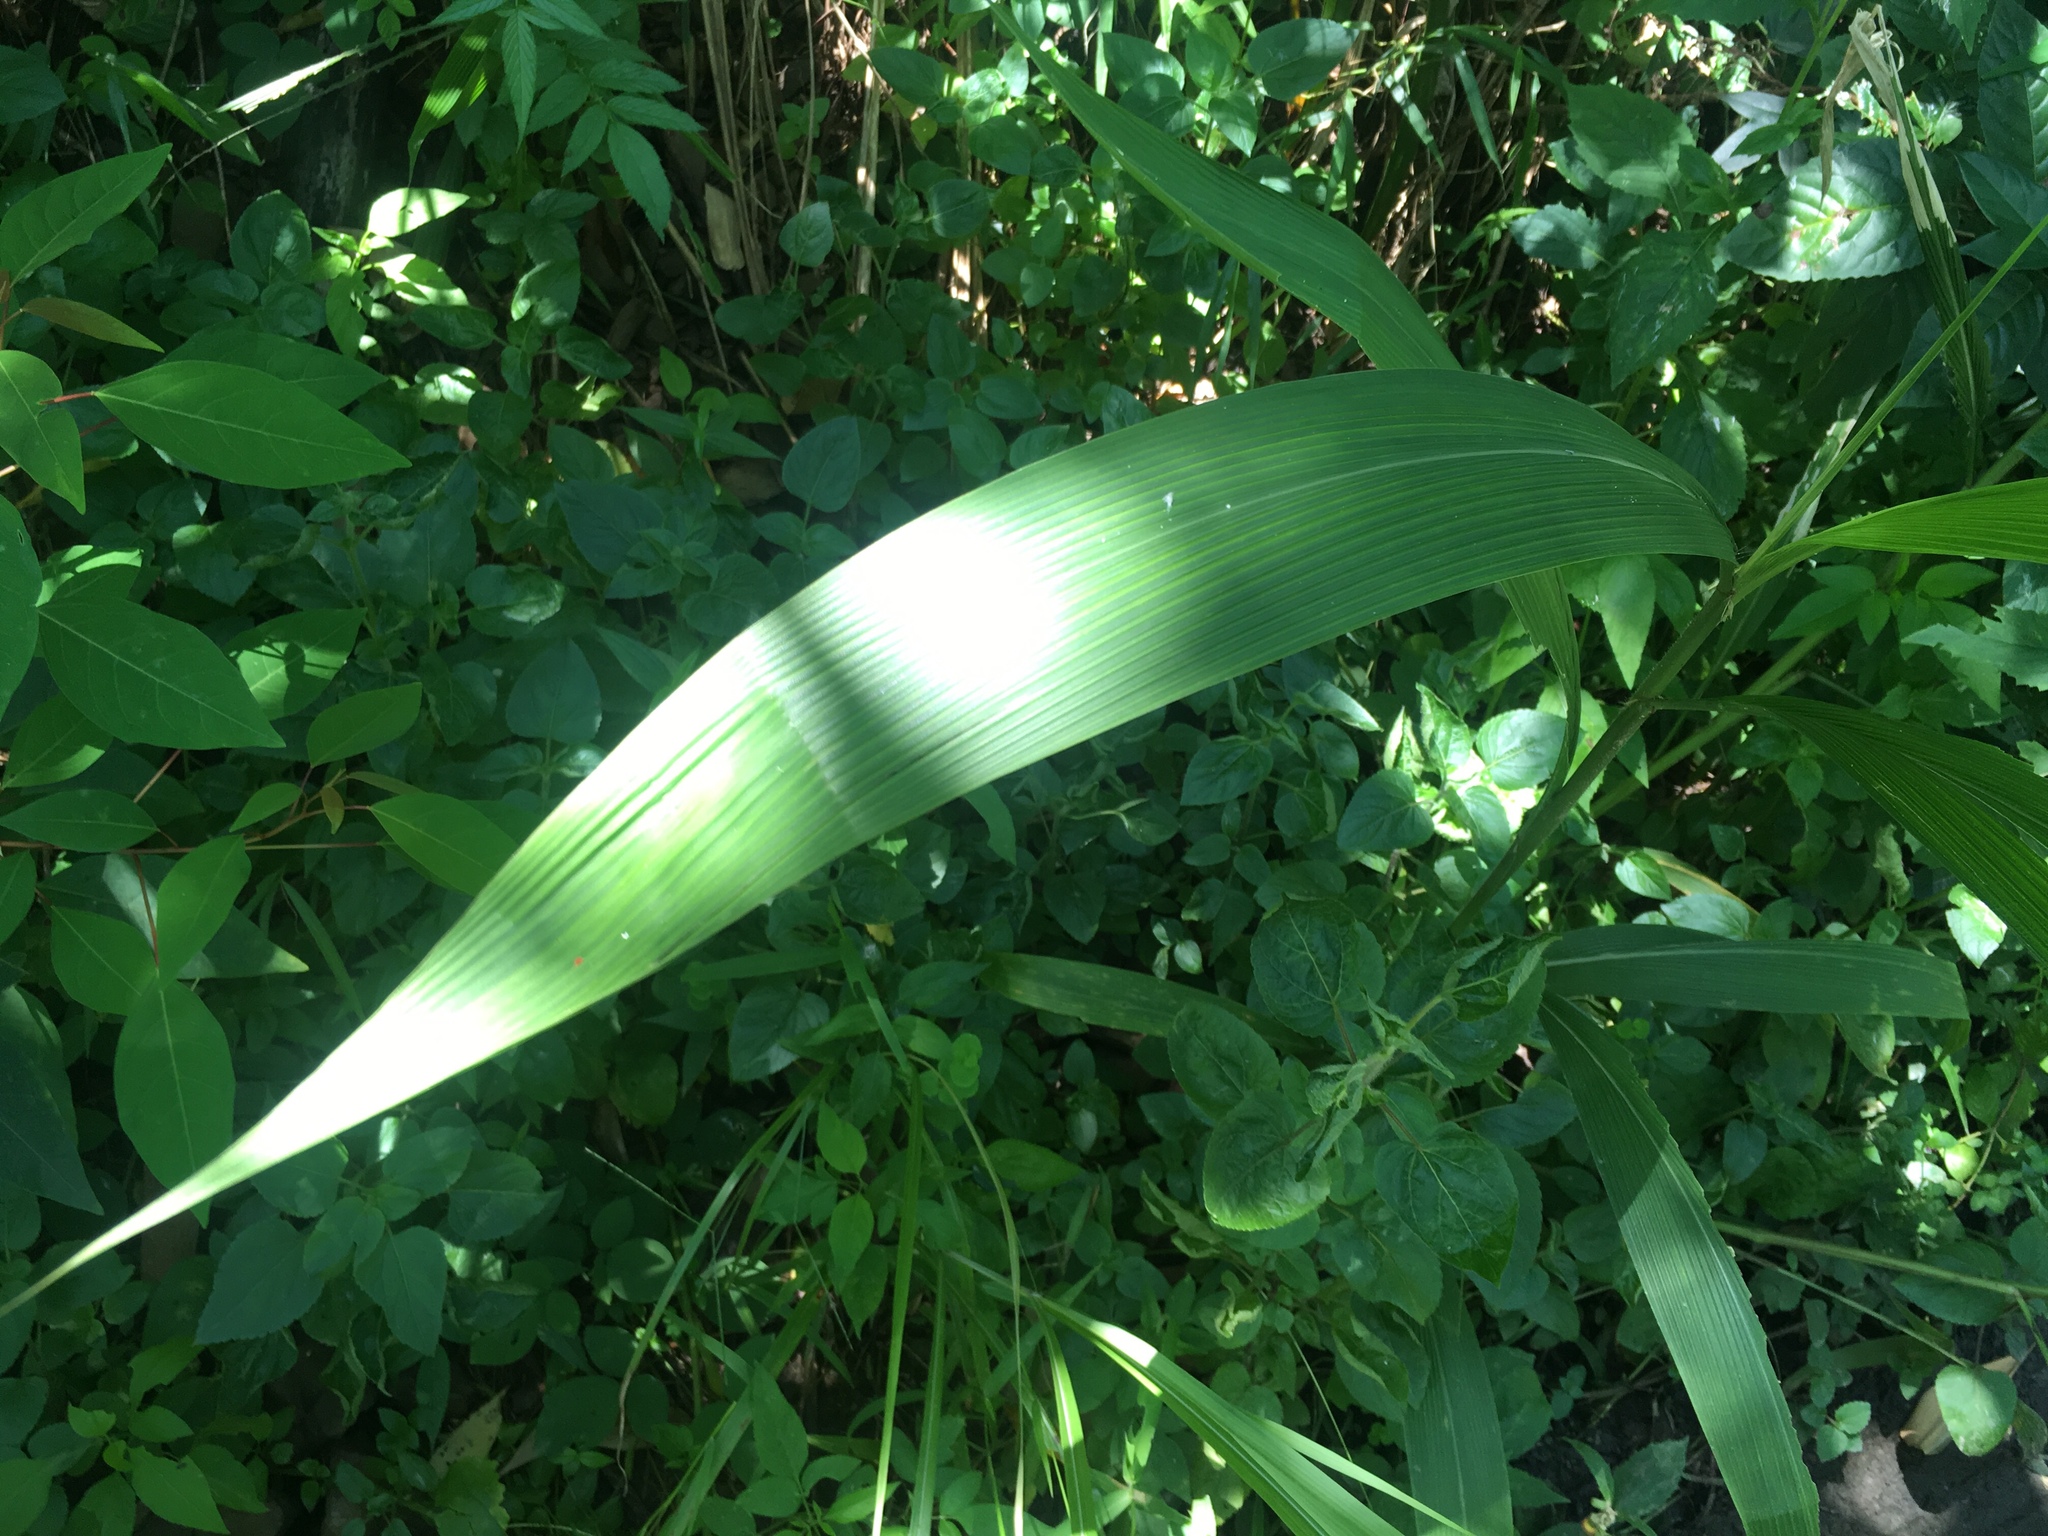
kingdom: Plantae
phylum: Tracheophyta
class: Liliopsida
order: Poales
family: Poaceae
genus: Setaria
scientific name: Setaria palmifolia
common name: Broadleaved bristlegrass
